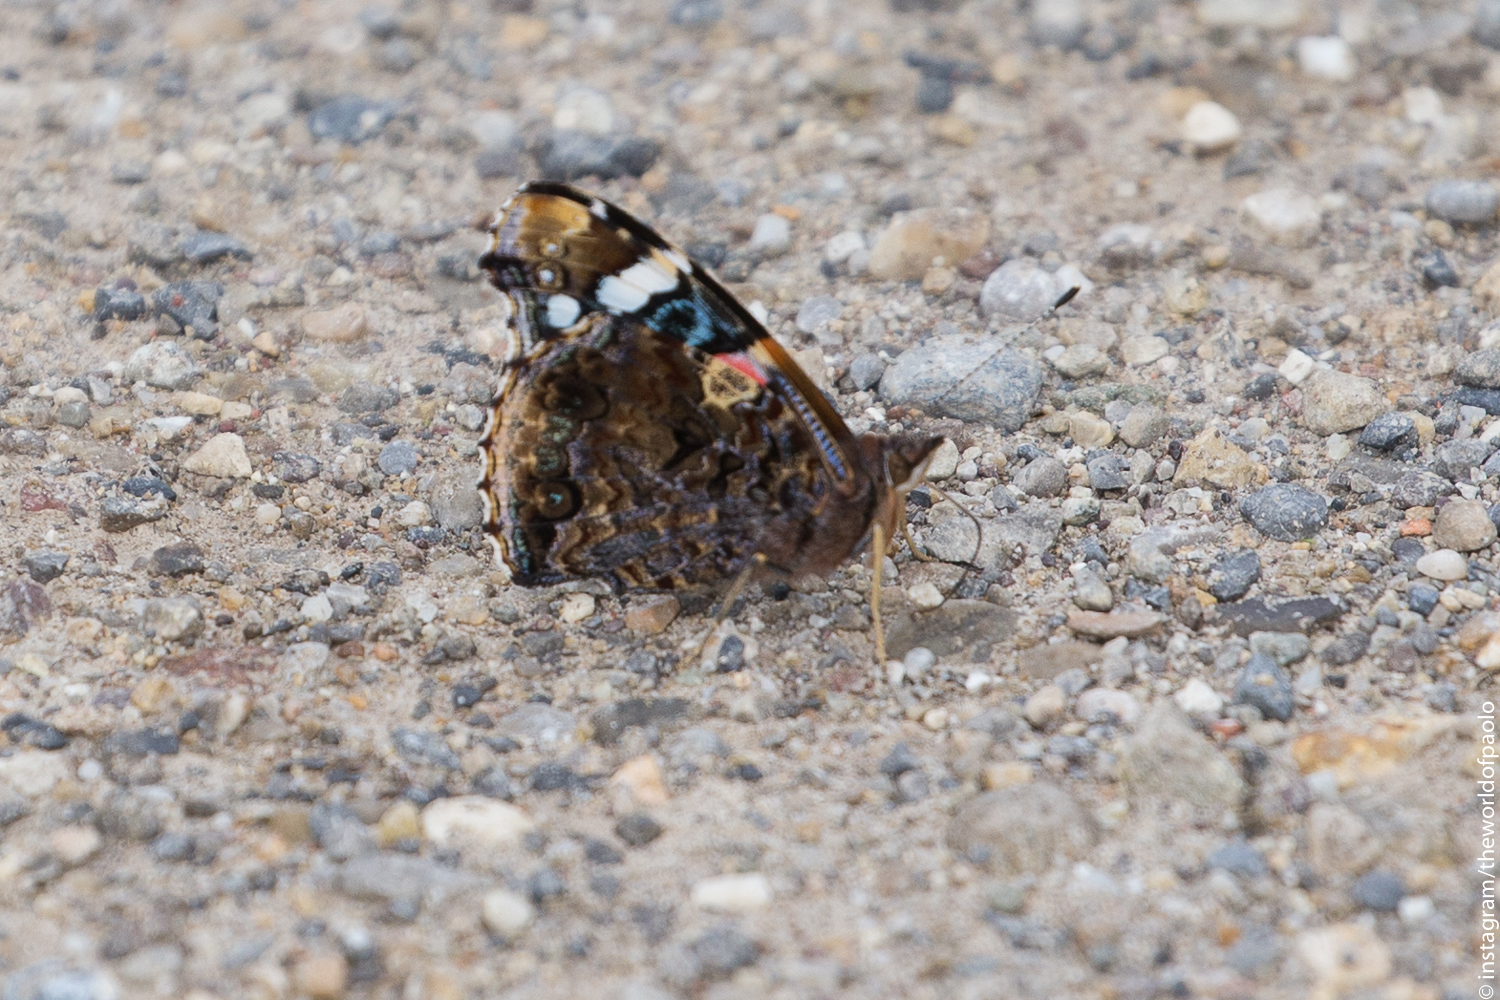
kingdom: Animalia
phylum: Arthropoda
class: Insecta
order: Lepidoptera
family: Nymphalidae
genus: Vanessa
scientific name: Vanessa atalanta
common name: Red admiral
